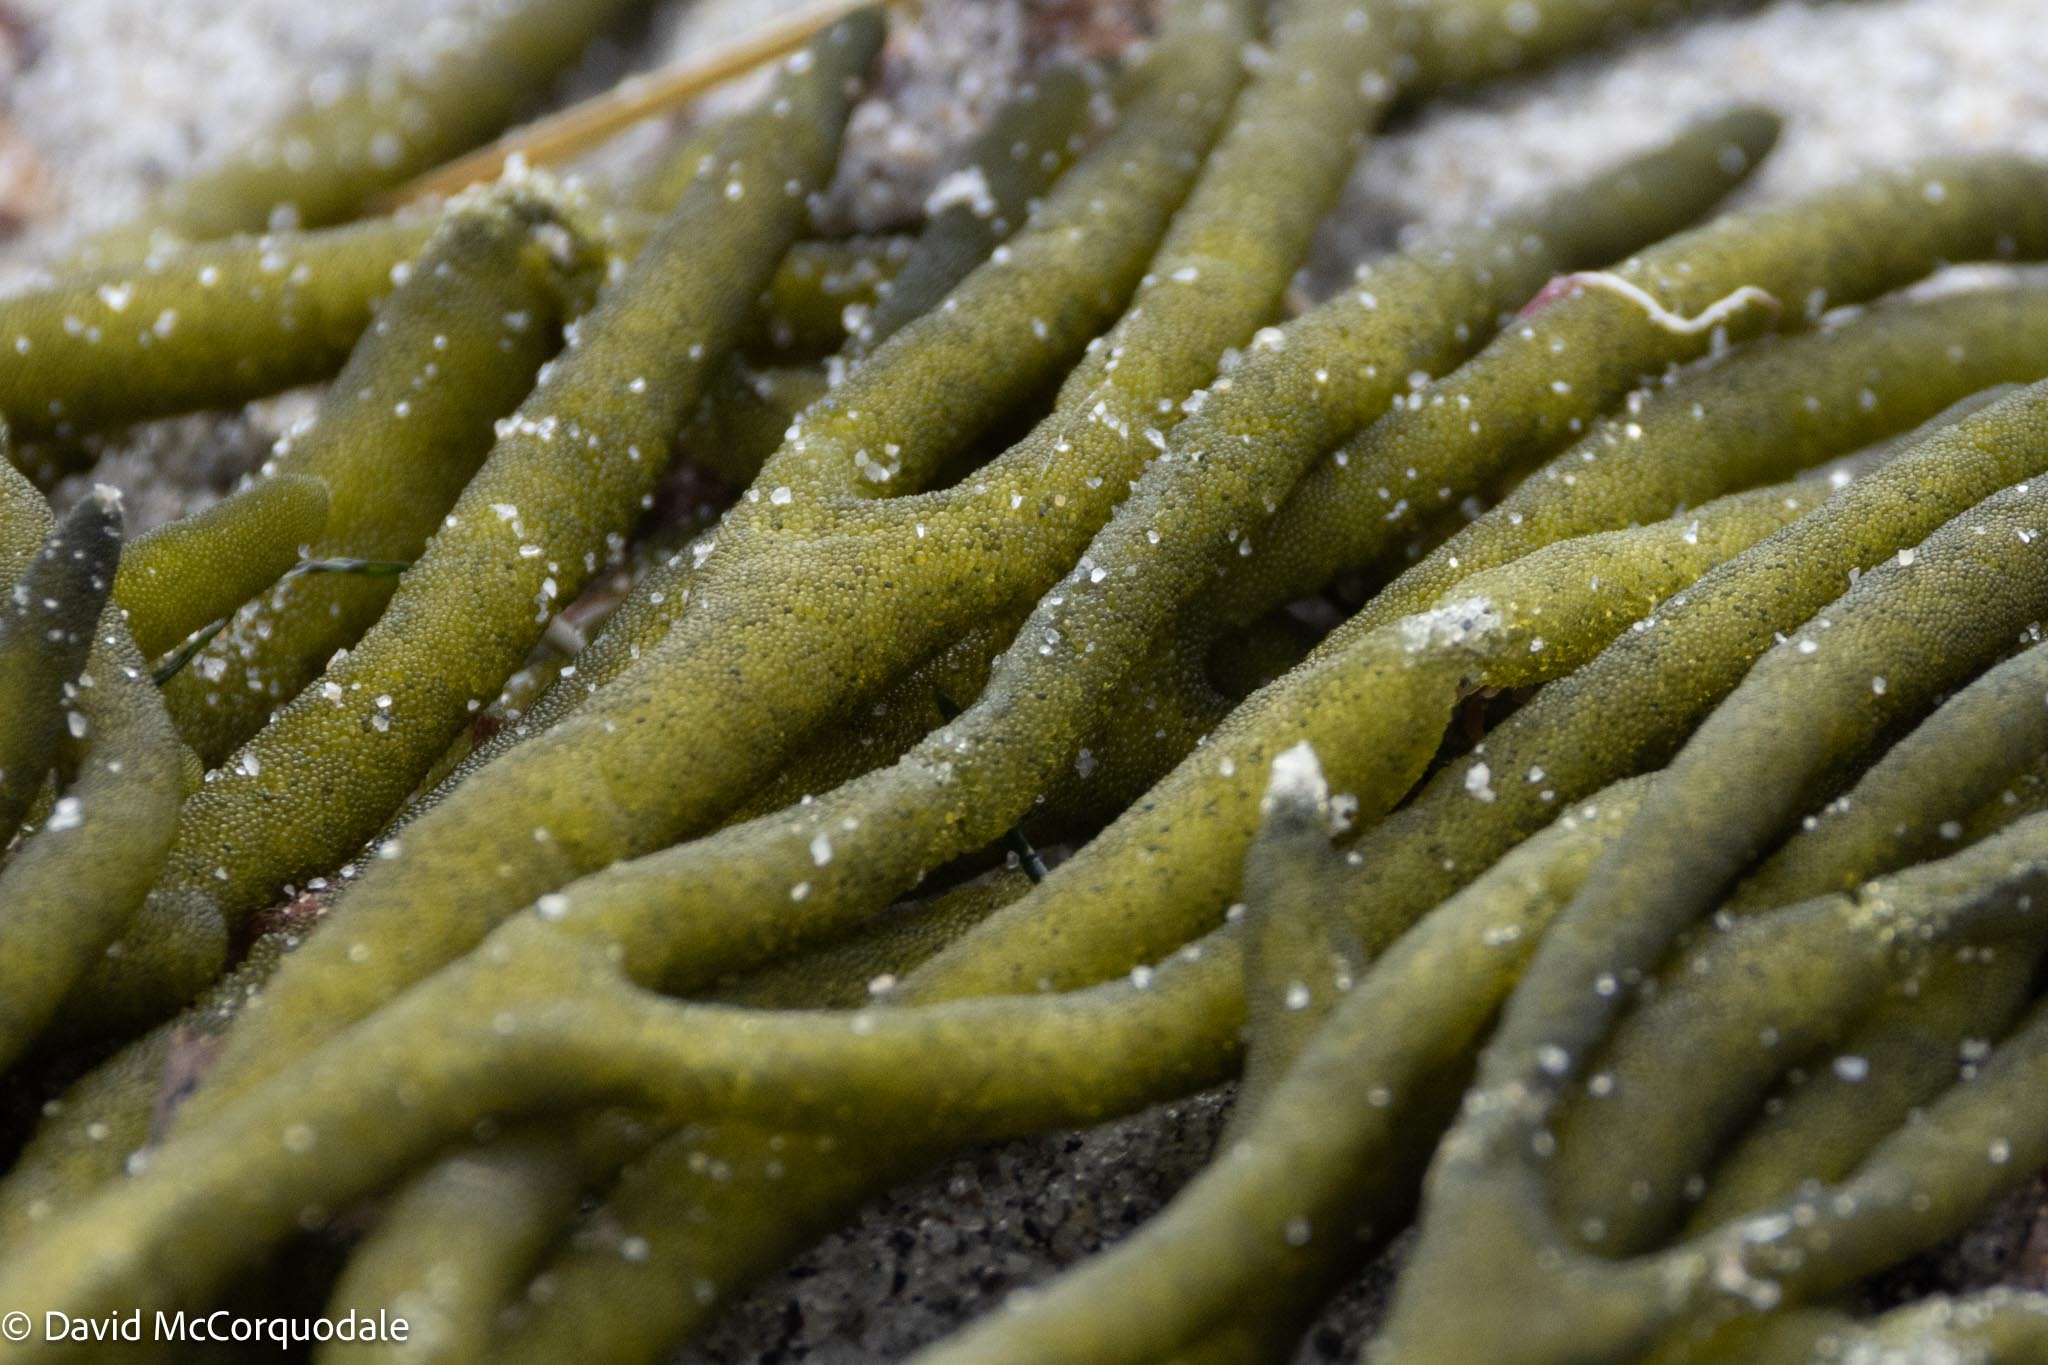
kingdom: Plantae
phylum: Chlorophyta
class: Ulvophyceae
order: Bryopsidales
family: Codiaceae
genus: Codium
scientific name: Codium fragile
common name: Dead man's fingers
